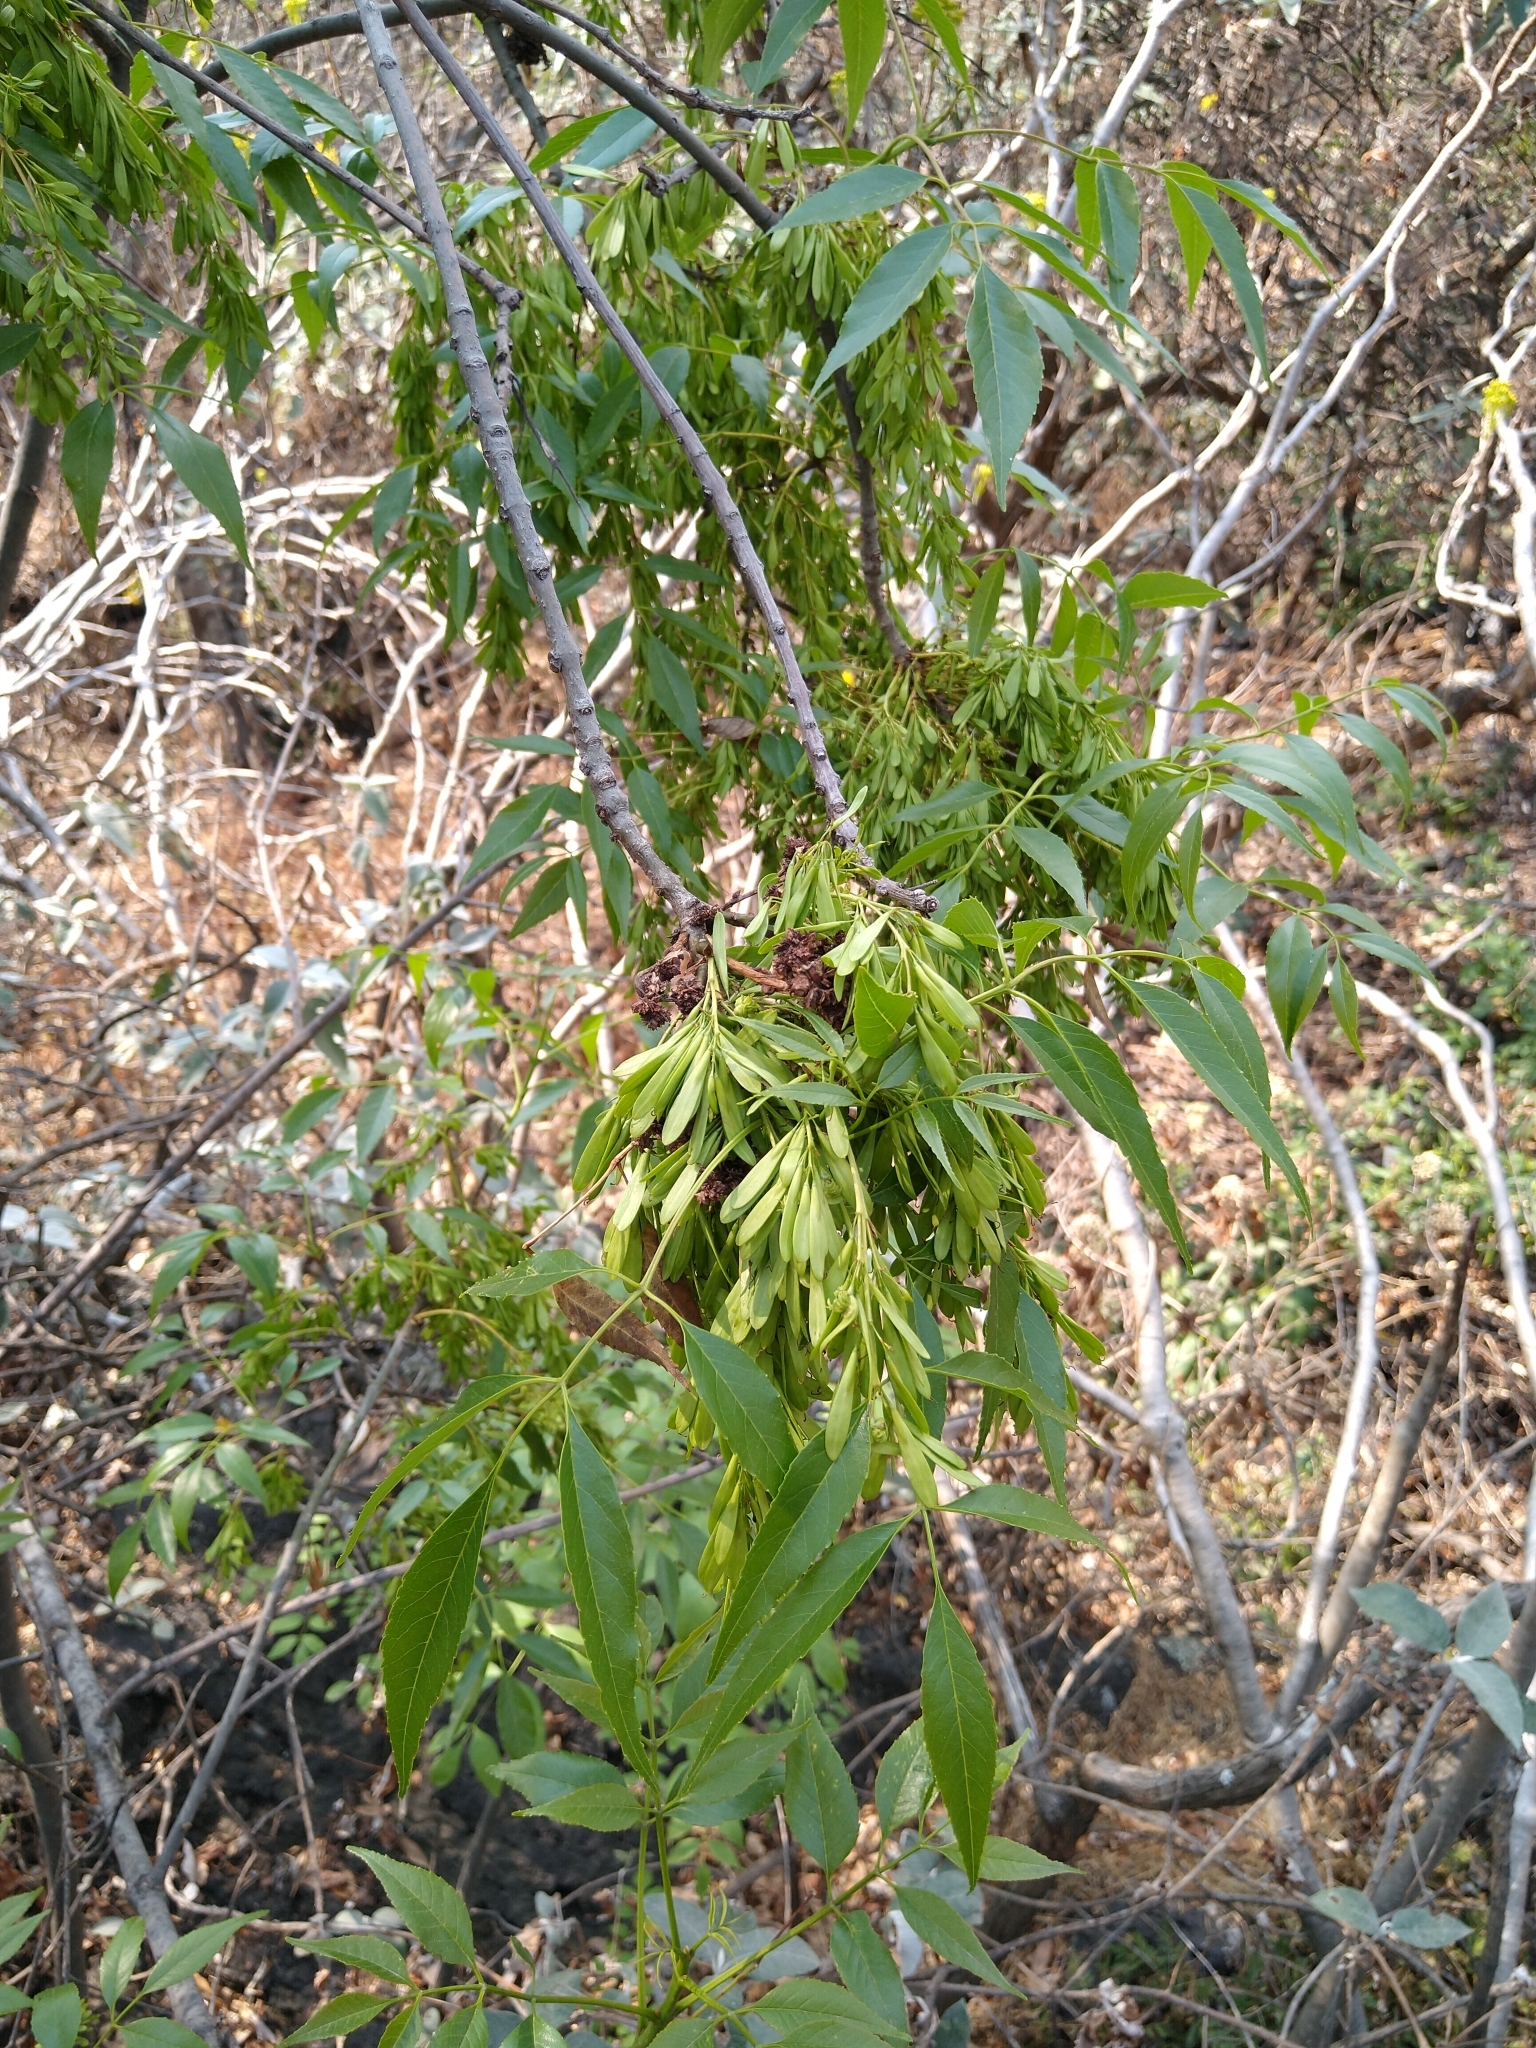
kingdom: Plantae
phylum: Tracheophyta
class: Magnoliopsida
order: Lamiales
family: Oleaceae
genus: Fraxinus
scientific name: Fraxinus uhdei
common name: Shamel ash
